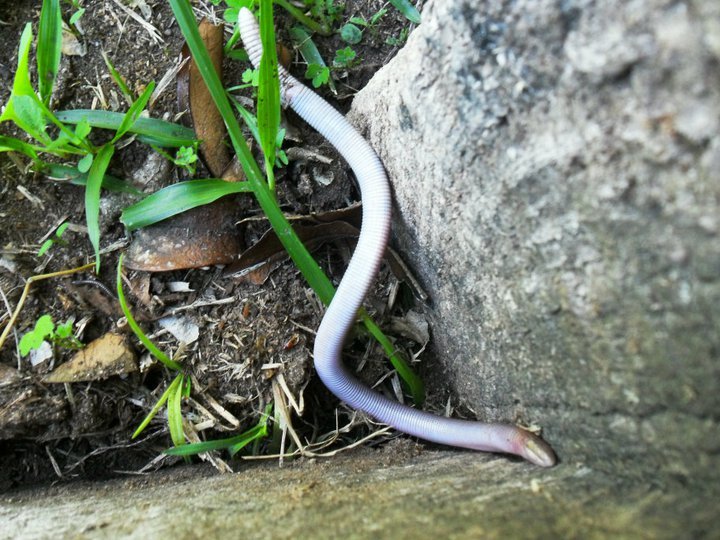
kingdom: Animalia
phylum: Chordata
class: Squamata
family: Amphisbaenidae
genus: Amphisbaena
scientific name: Amphisbaena angustifrons
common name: South american worm lizard
